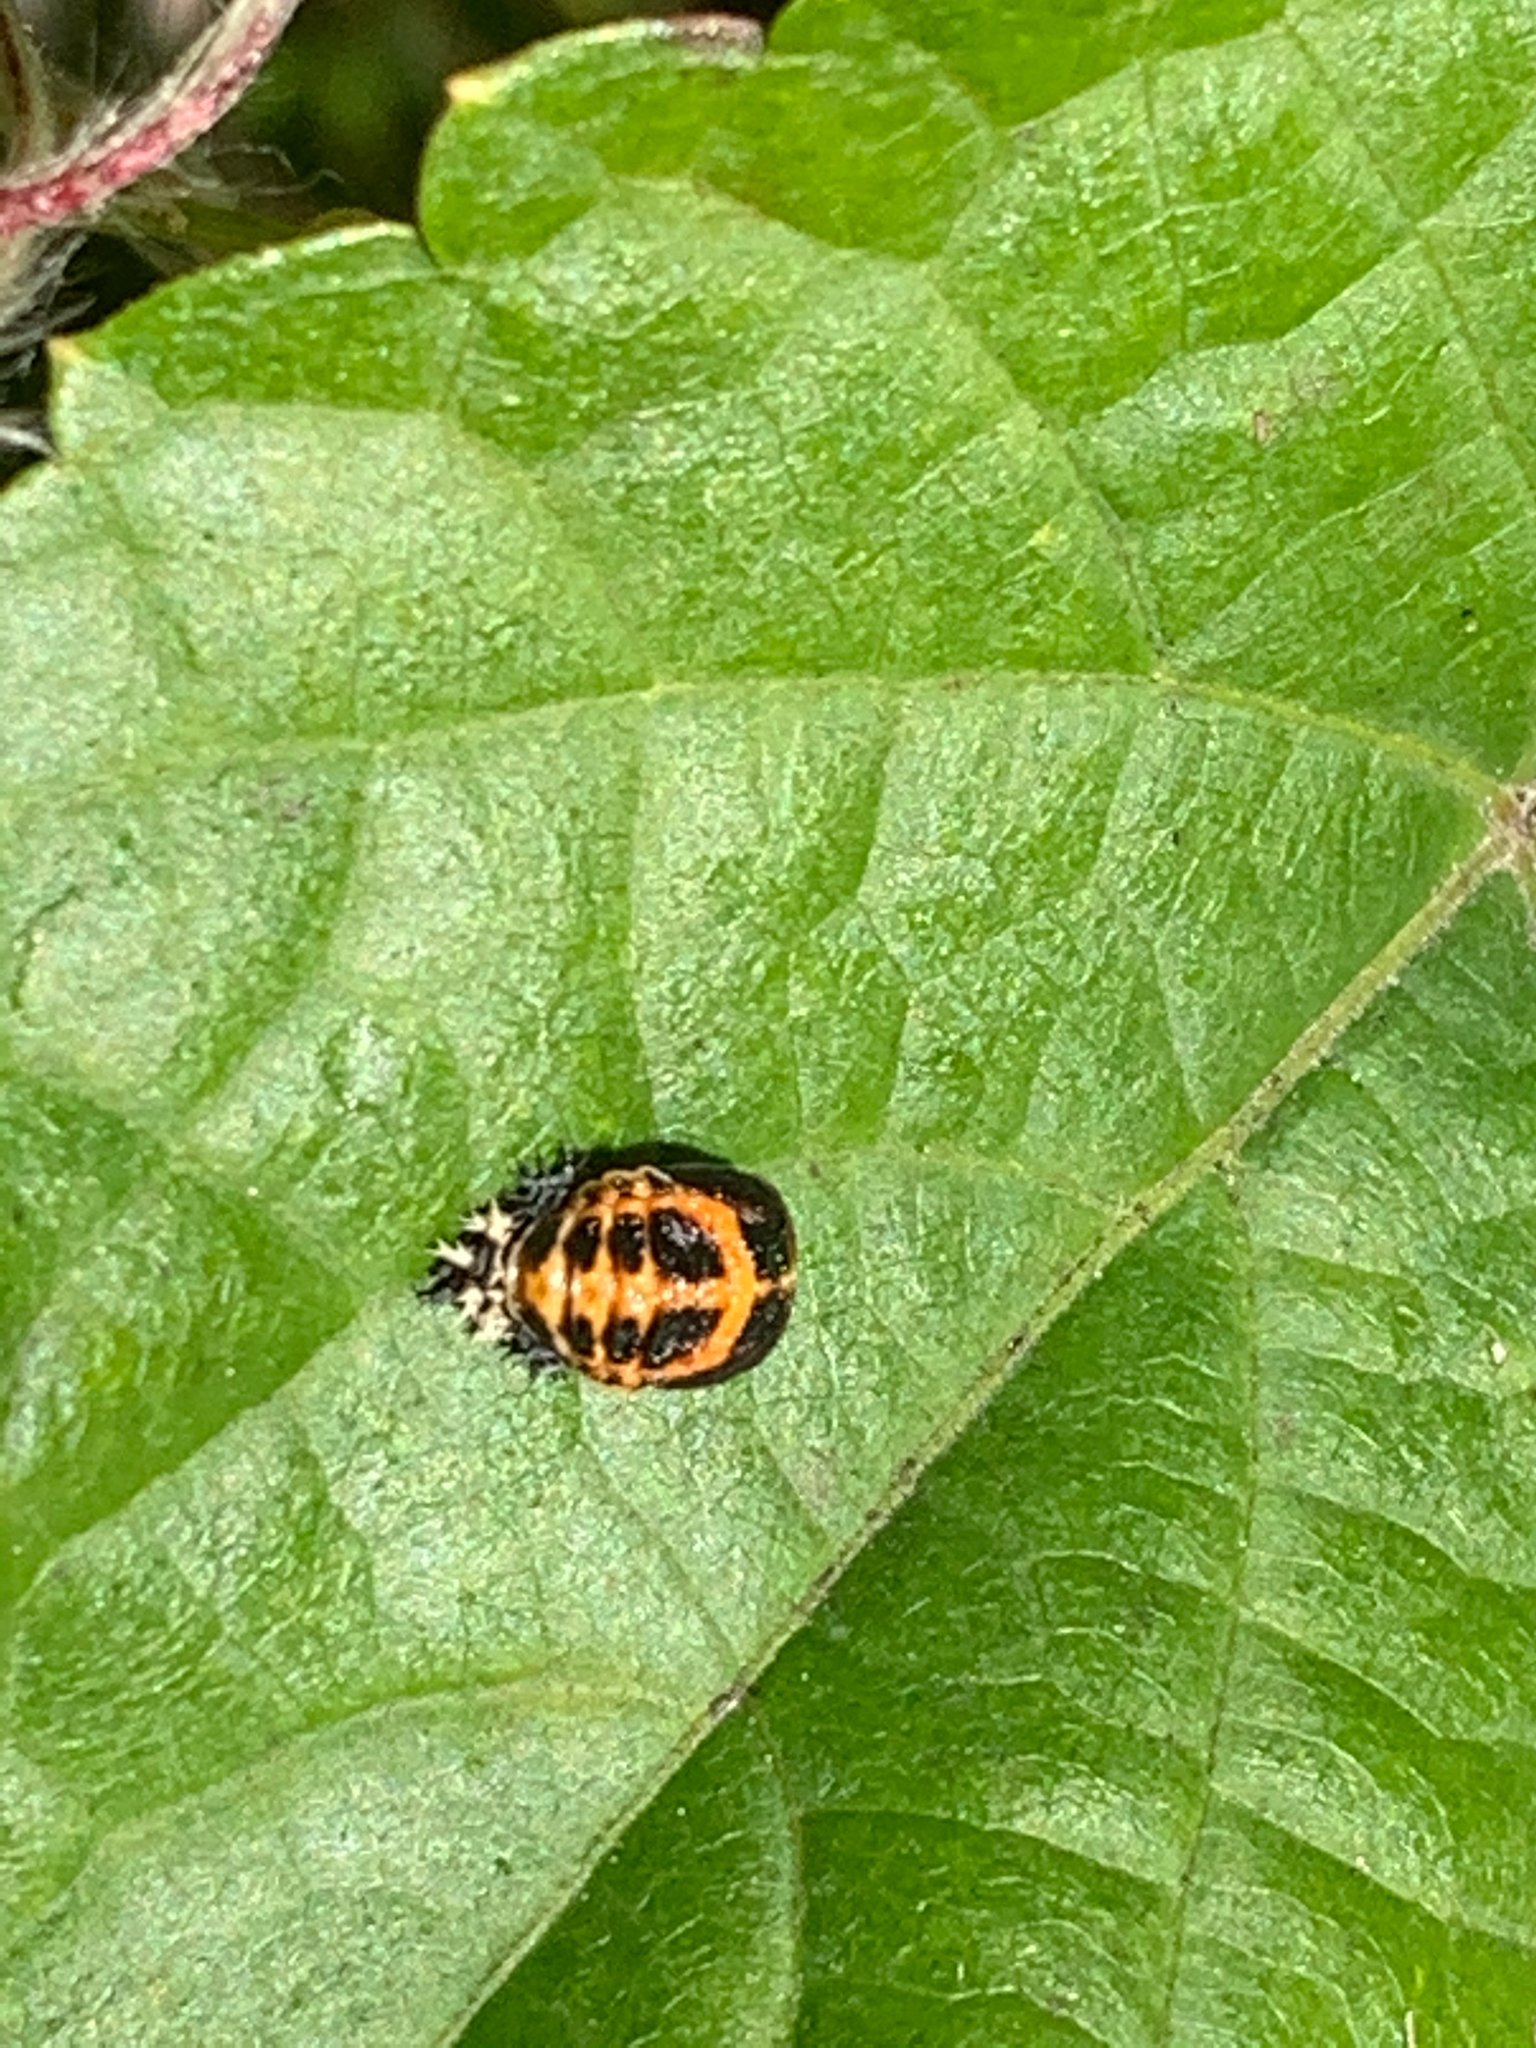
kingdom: Animalia
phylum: Arthropoda
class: Insecta
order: Coleoptera
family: Coccinellidae
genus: Harmonia
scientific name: Harmonia axyridis
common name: Harlequin ladybird
